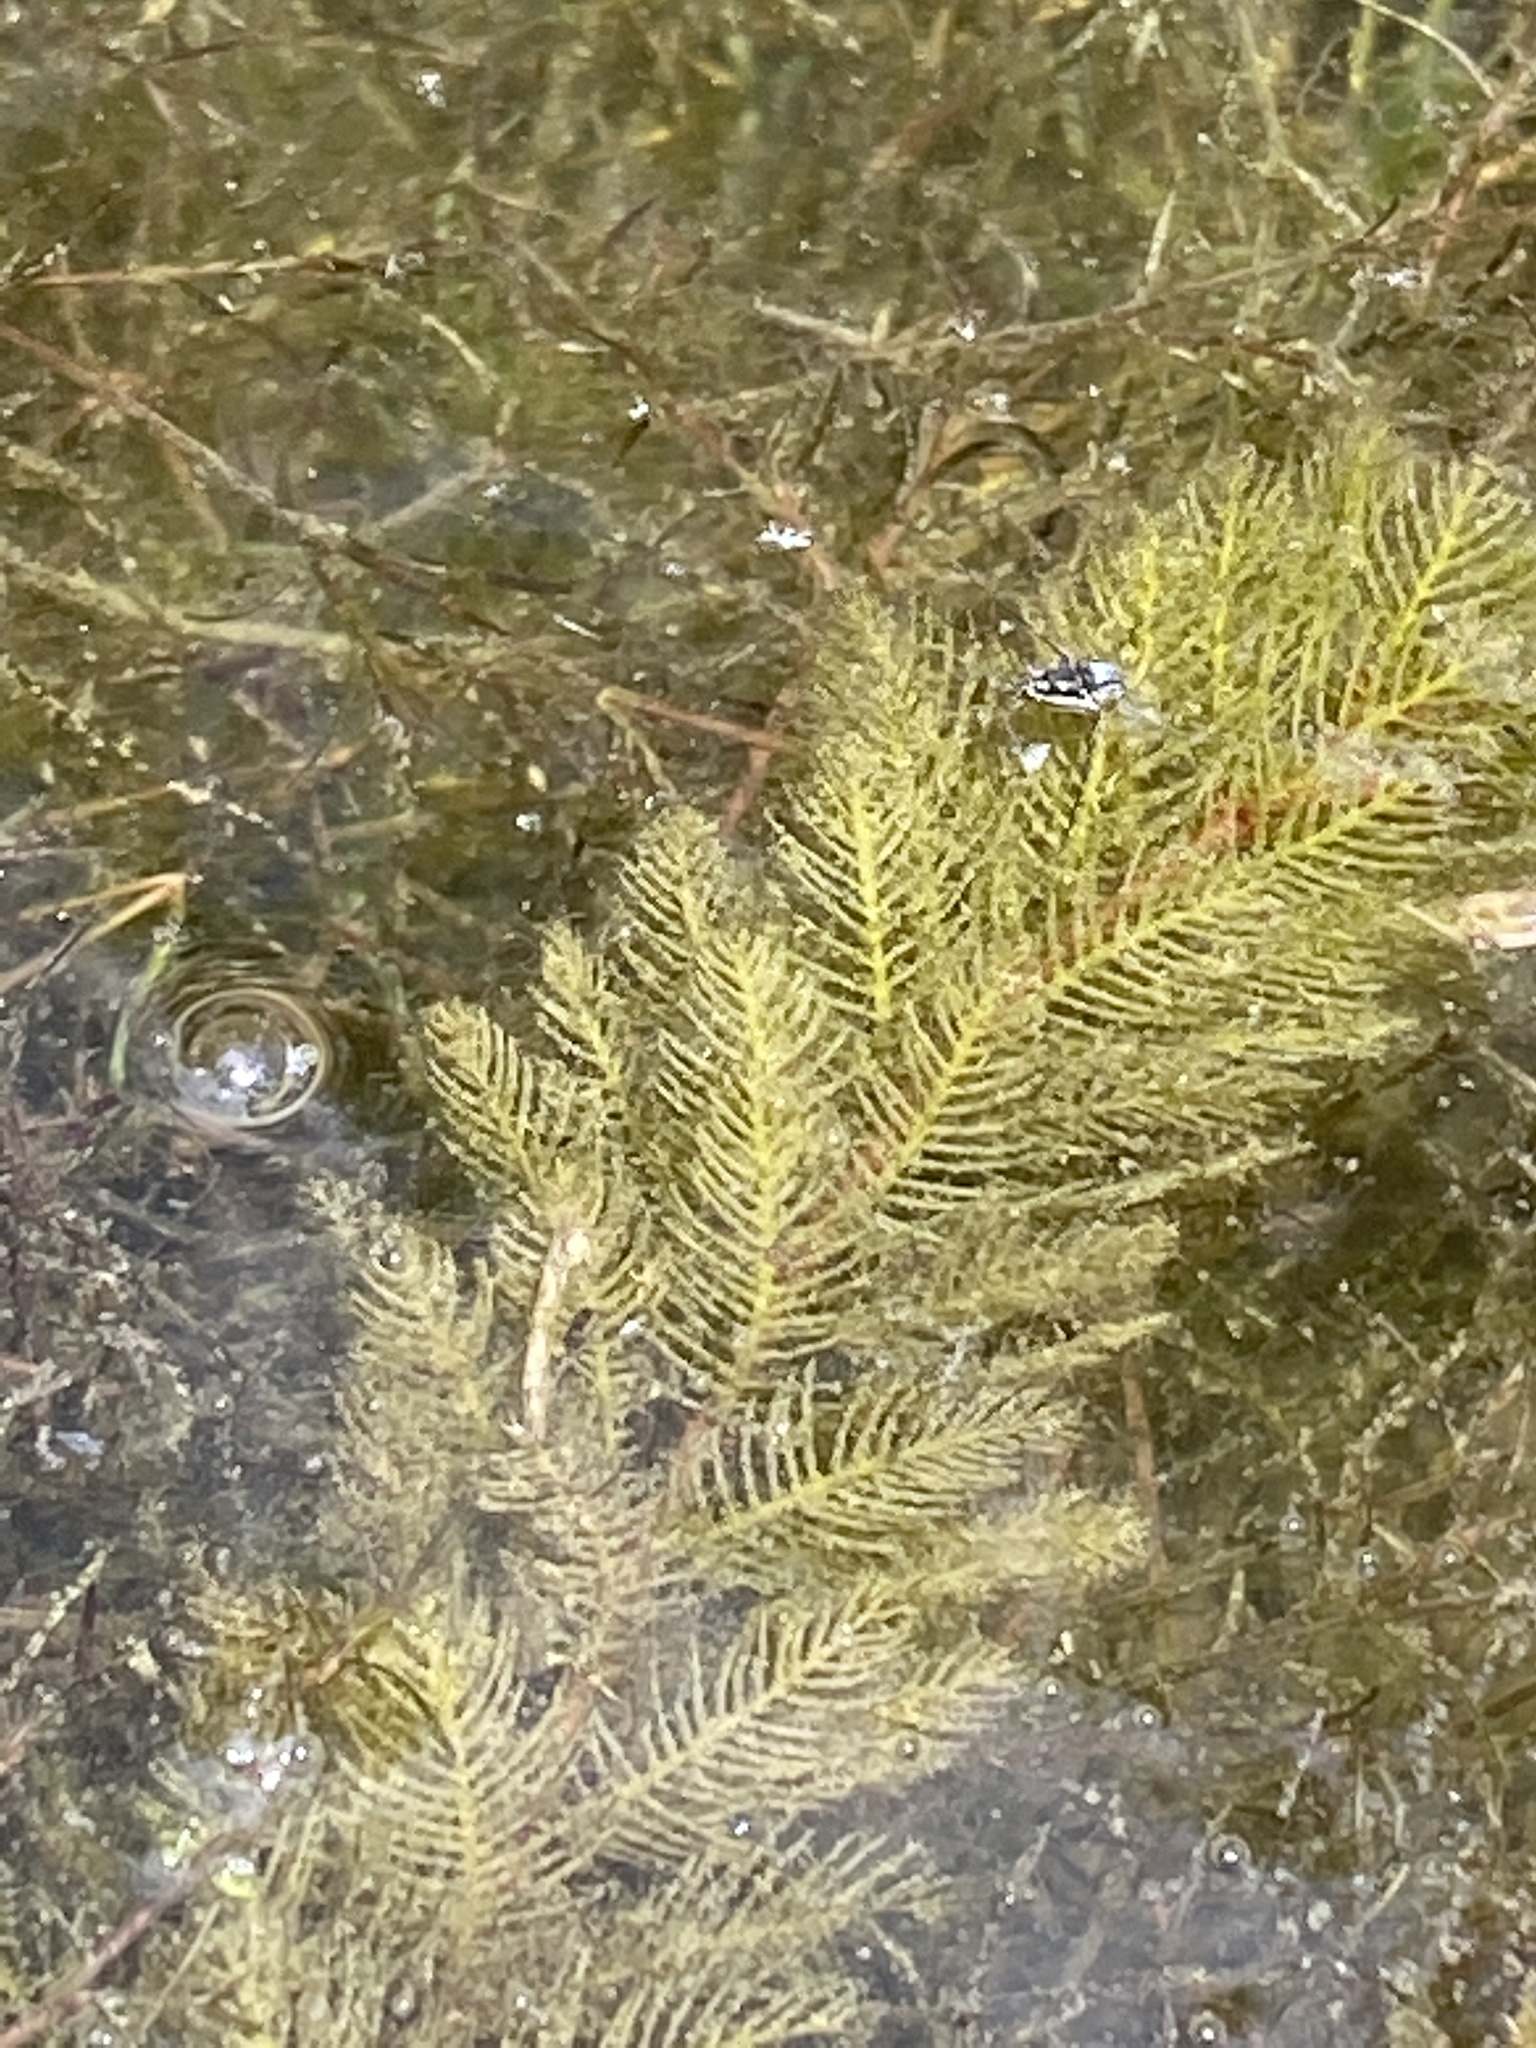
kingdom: Plantae
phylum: Tracheophyta
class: Magnoliopsida
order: Saxifragales
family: Haloragaceae
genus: Myriophyllum
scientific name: Myriophyllum spicatum
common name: Spiked water-milfoil
